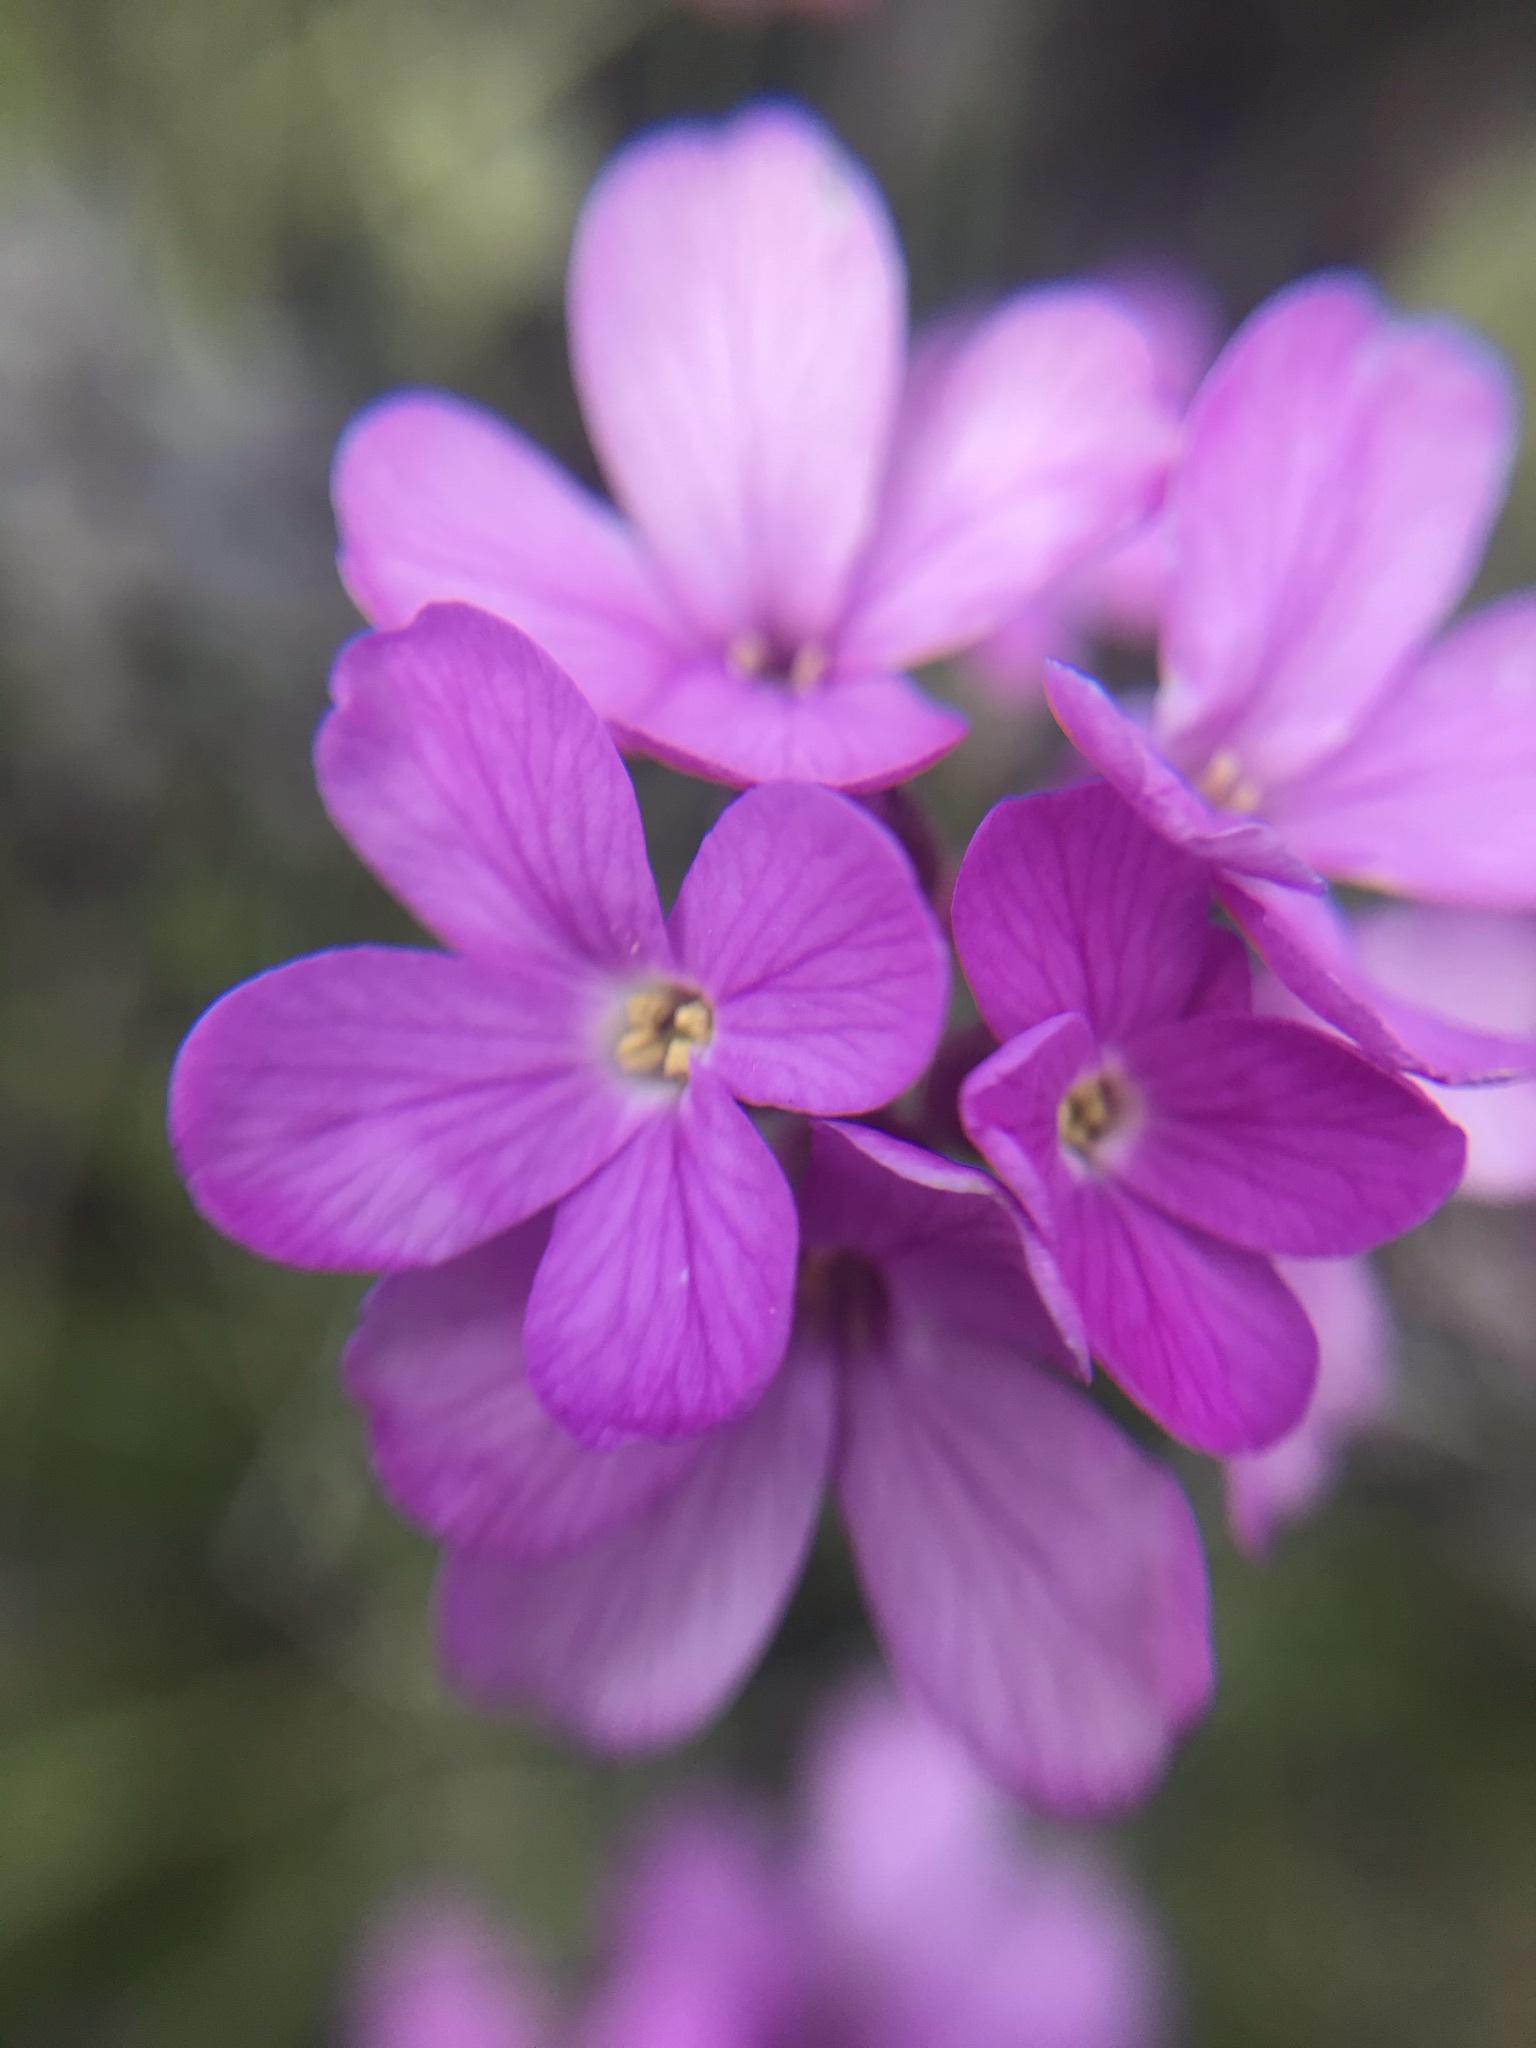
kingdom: Plantae
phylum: Tracheophyta
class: Magnoliopsida
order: Brassicales
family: Brassicaceae
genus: Arabis
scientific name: Arabis blepharophylla
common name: Rose rockcress
